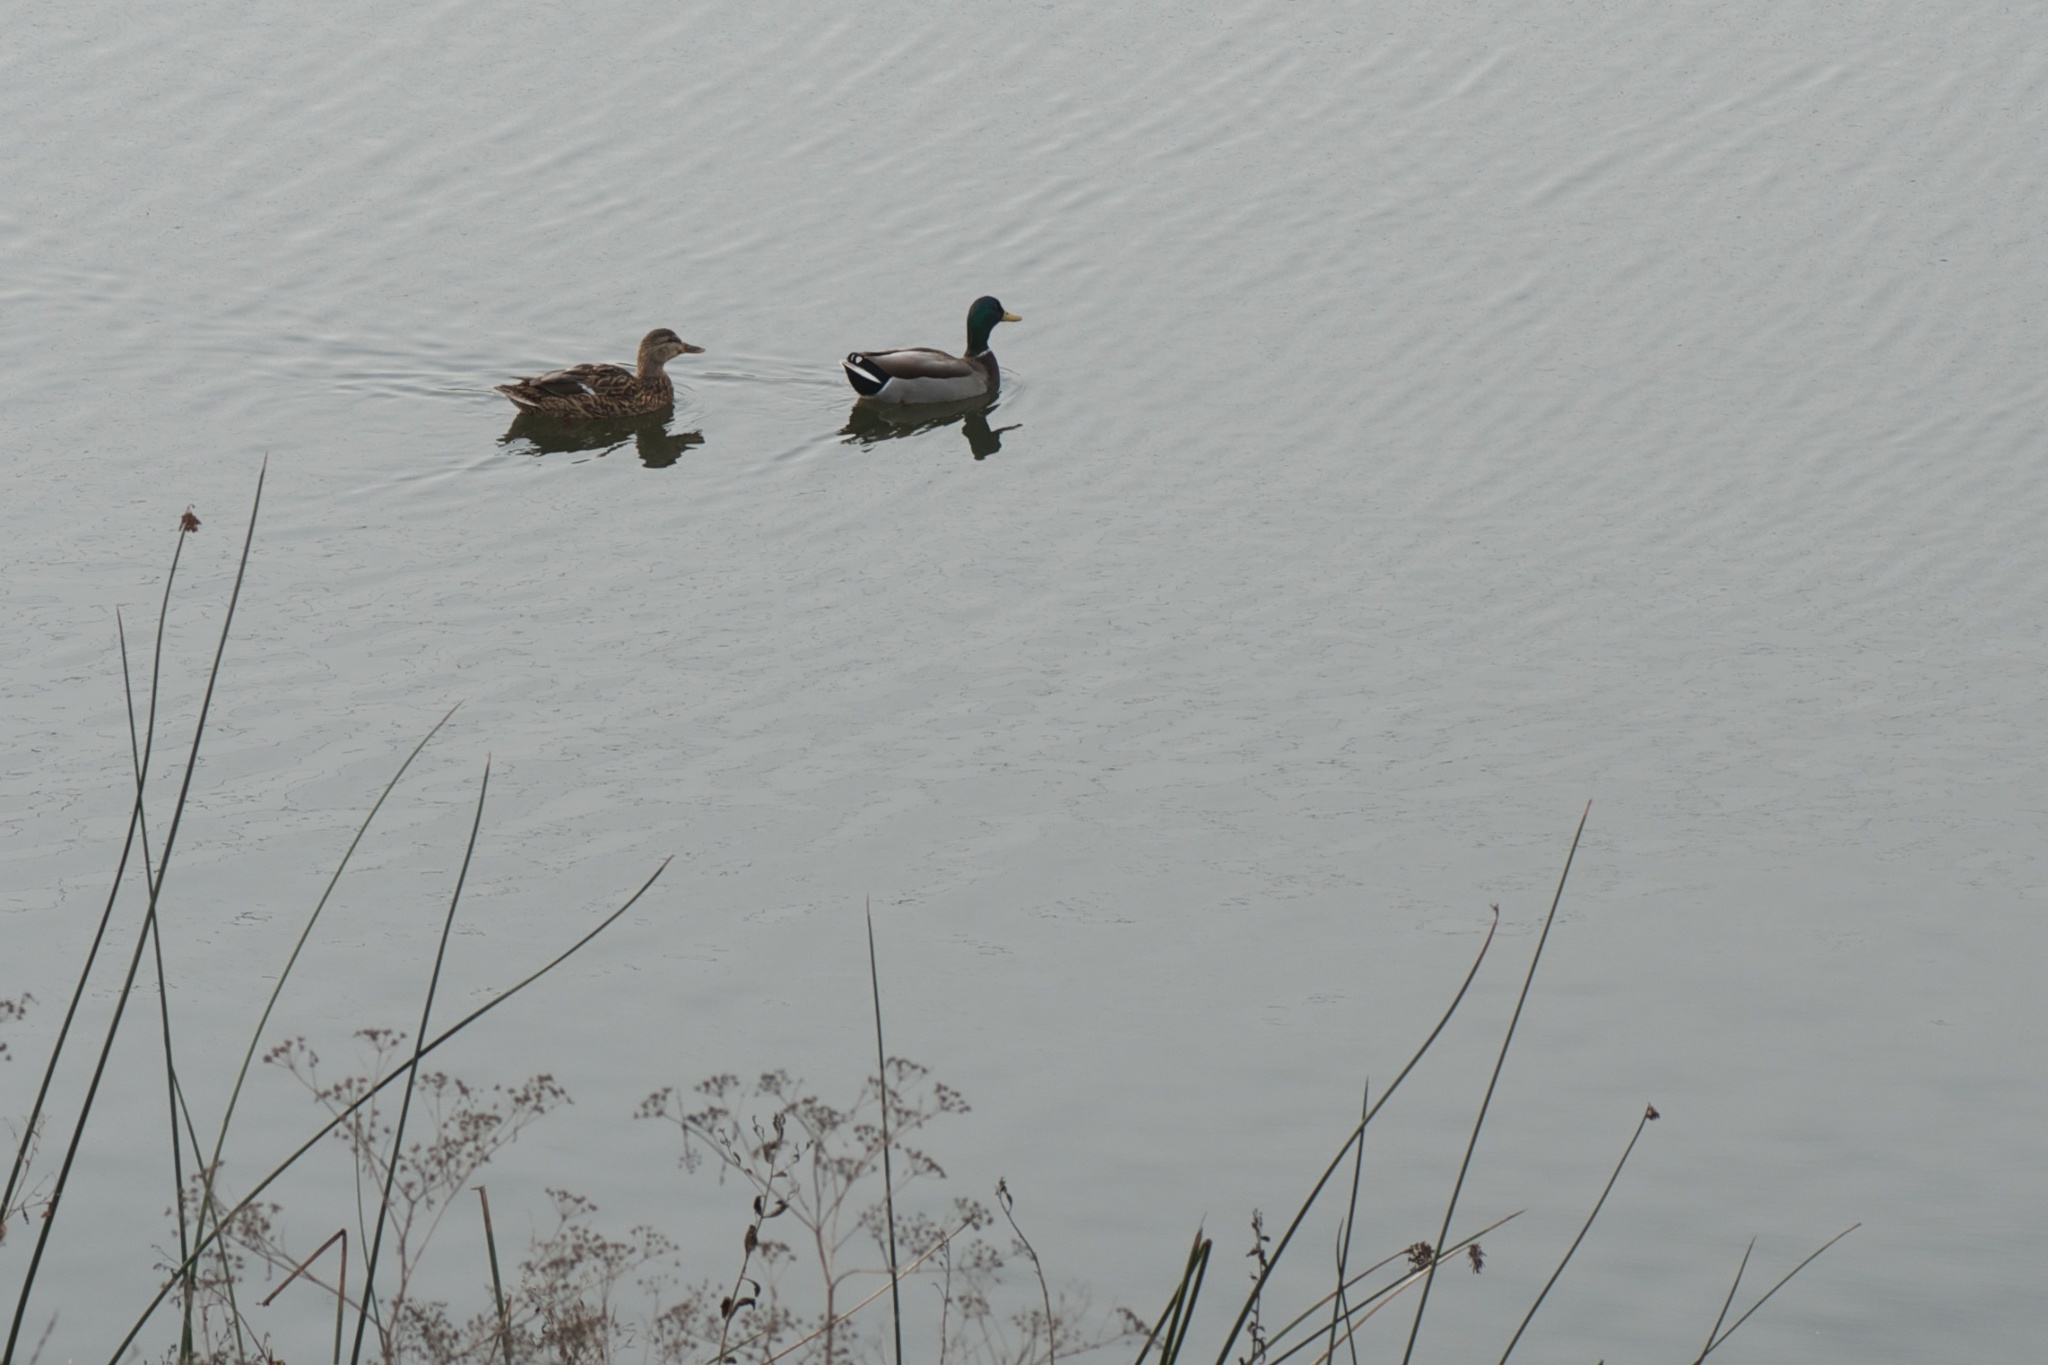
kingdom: Animalia
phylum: Chordata
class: Aves
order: Anseriformes
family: Anatidae
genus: Anas
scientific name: Anas platyrhynchos
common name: Mallard
